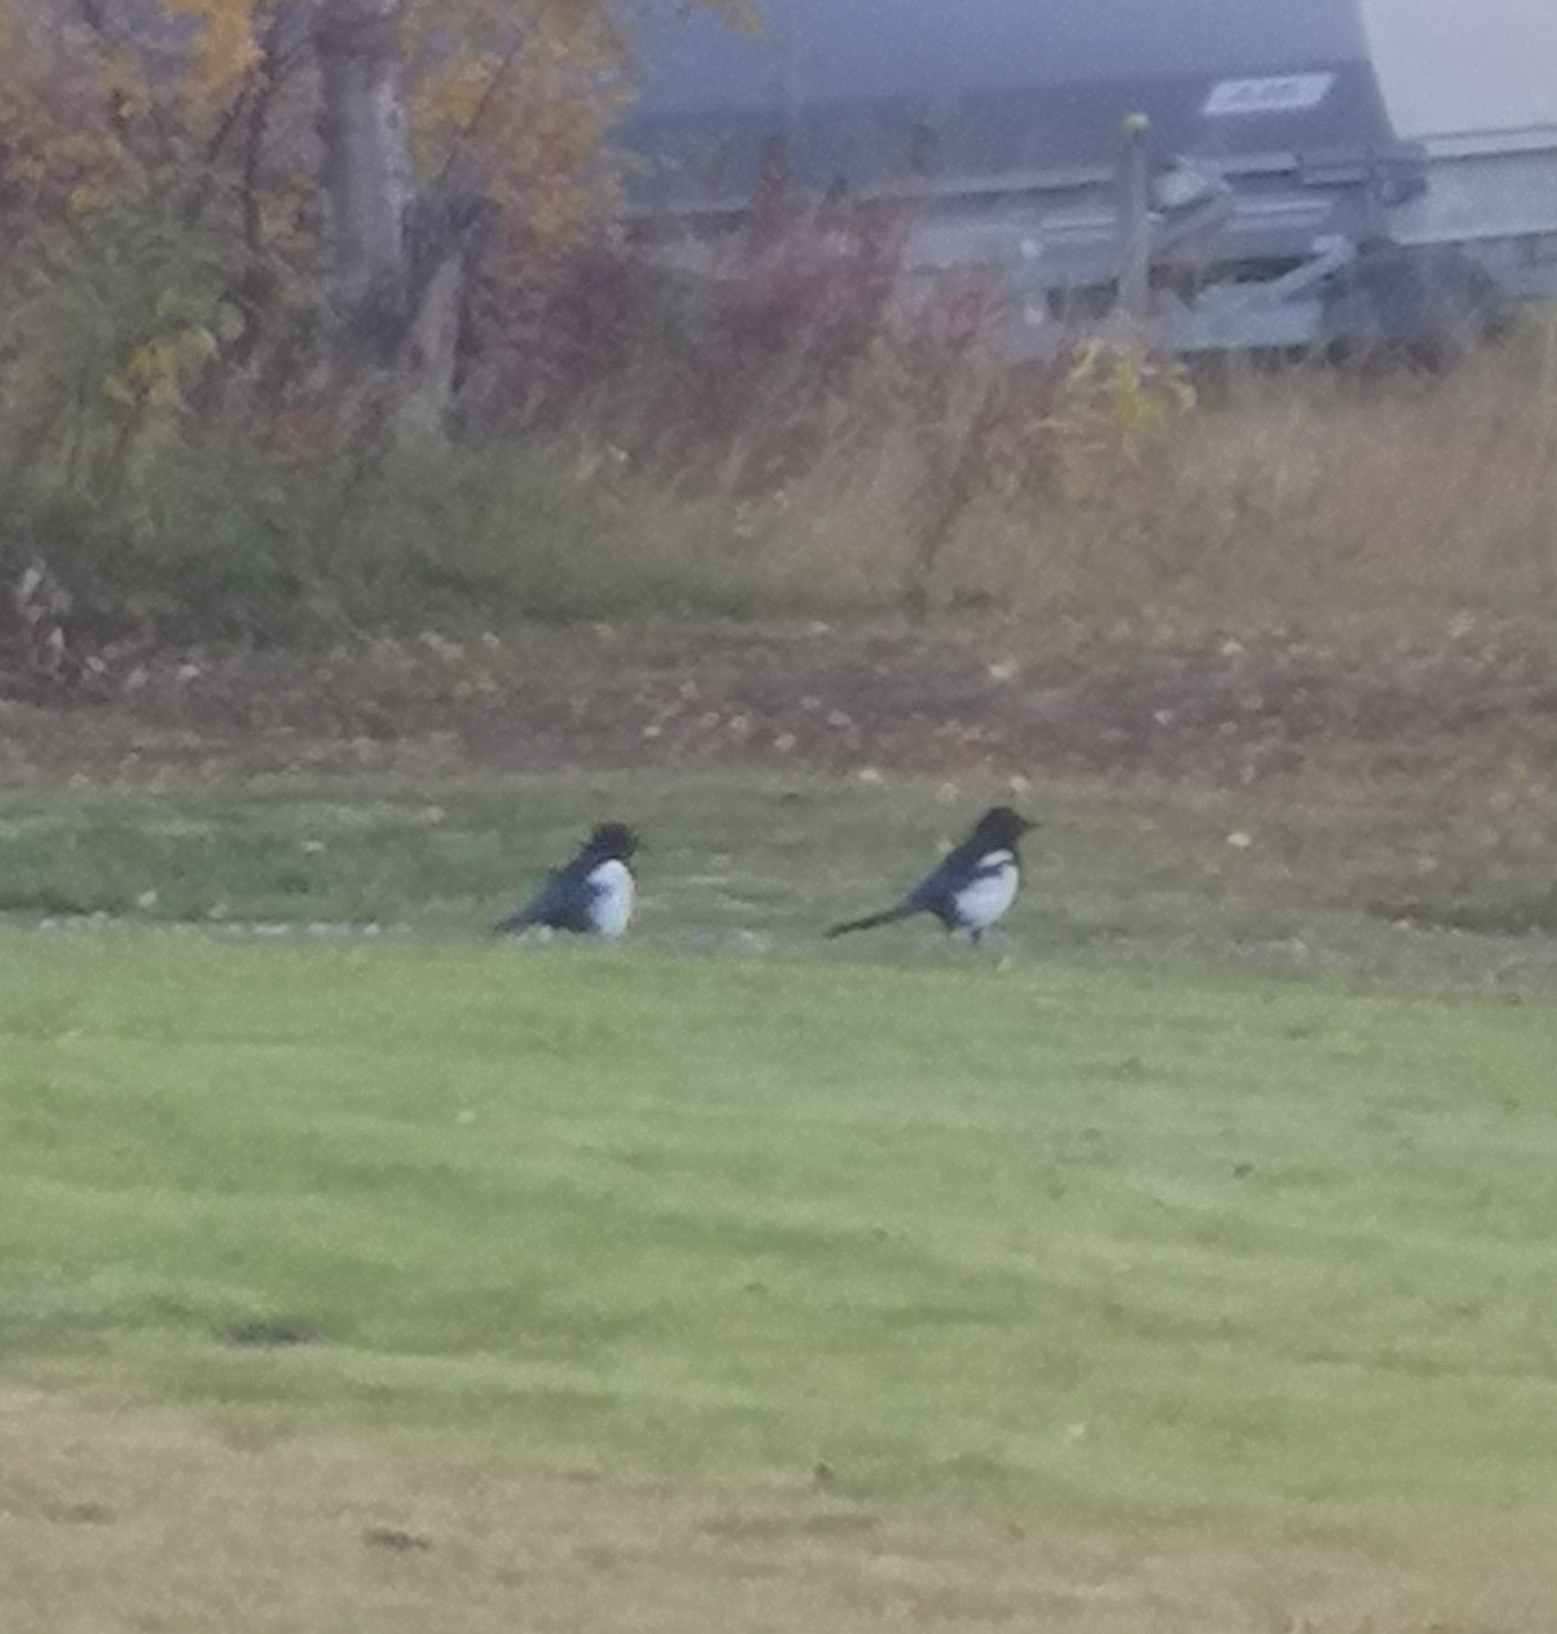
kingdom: Animalia
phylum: Chordata
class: Aves
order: Passeriformes
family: Corvidae
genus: Pica
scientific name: Pica pica
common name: Eurasian magpie
